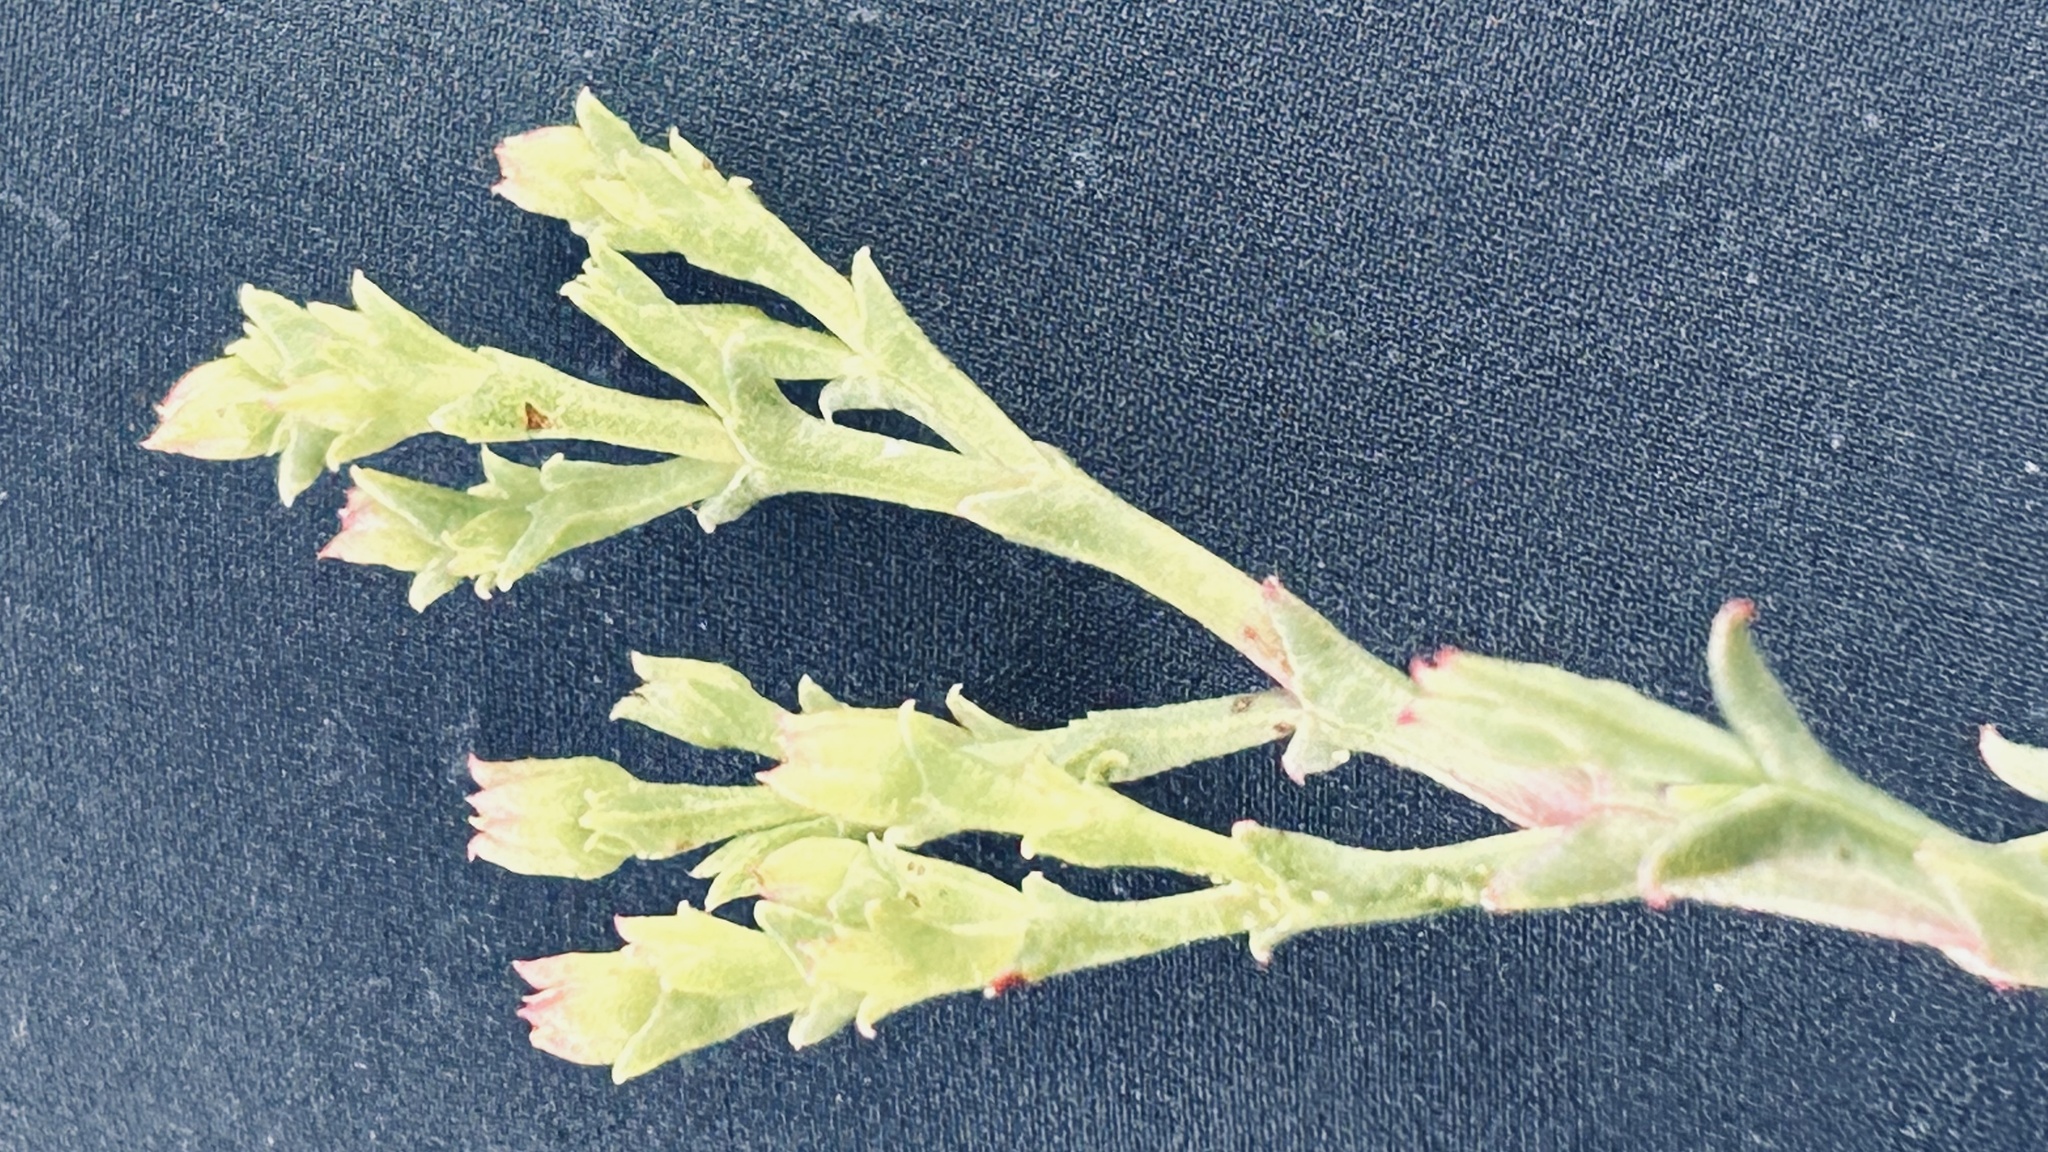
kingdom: Plantae
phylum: Tracheophyta
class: Magnoliopsida
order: Caryophyllales
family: Aizoaceae
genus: Ruschia
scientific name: Ruschia tenella
